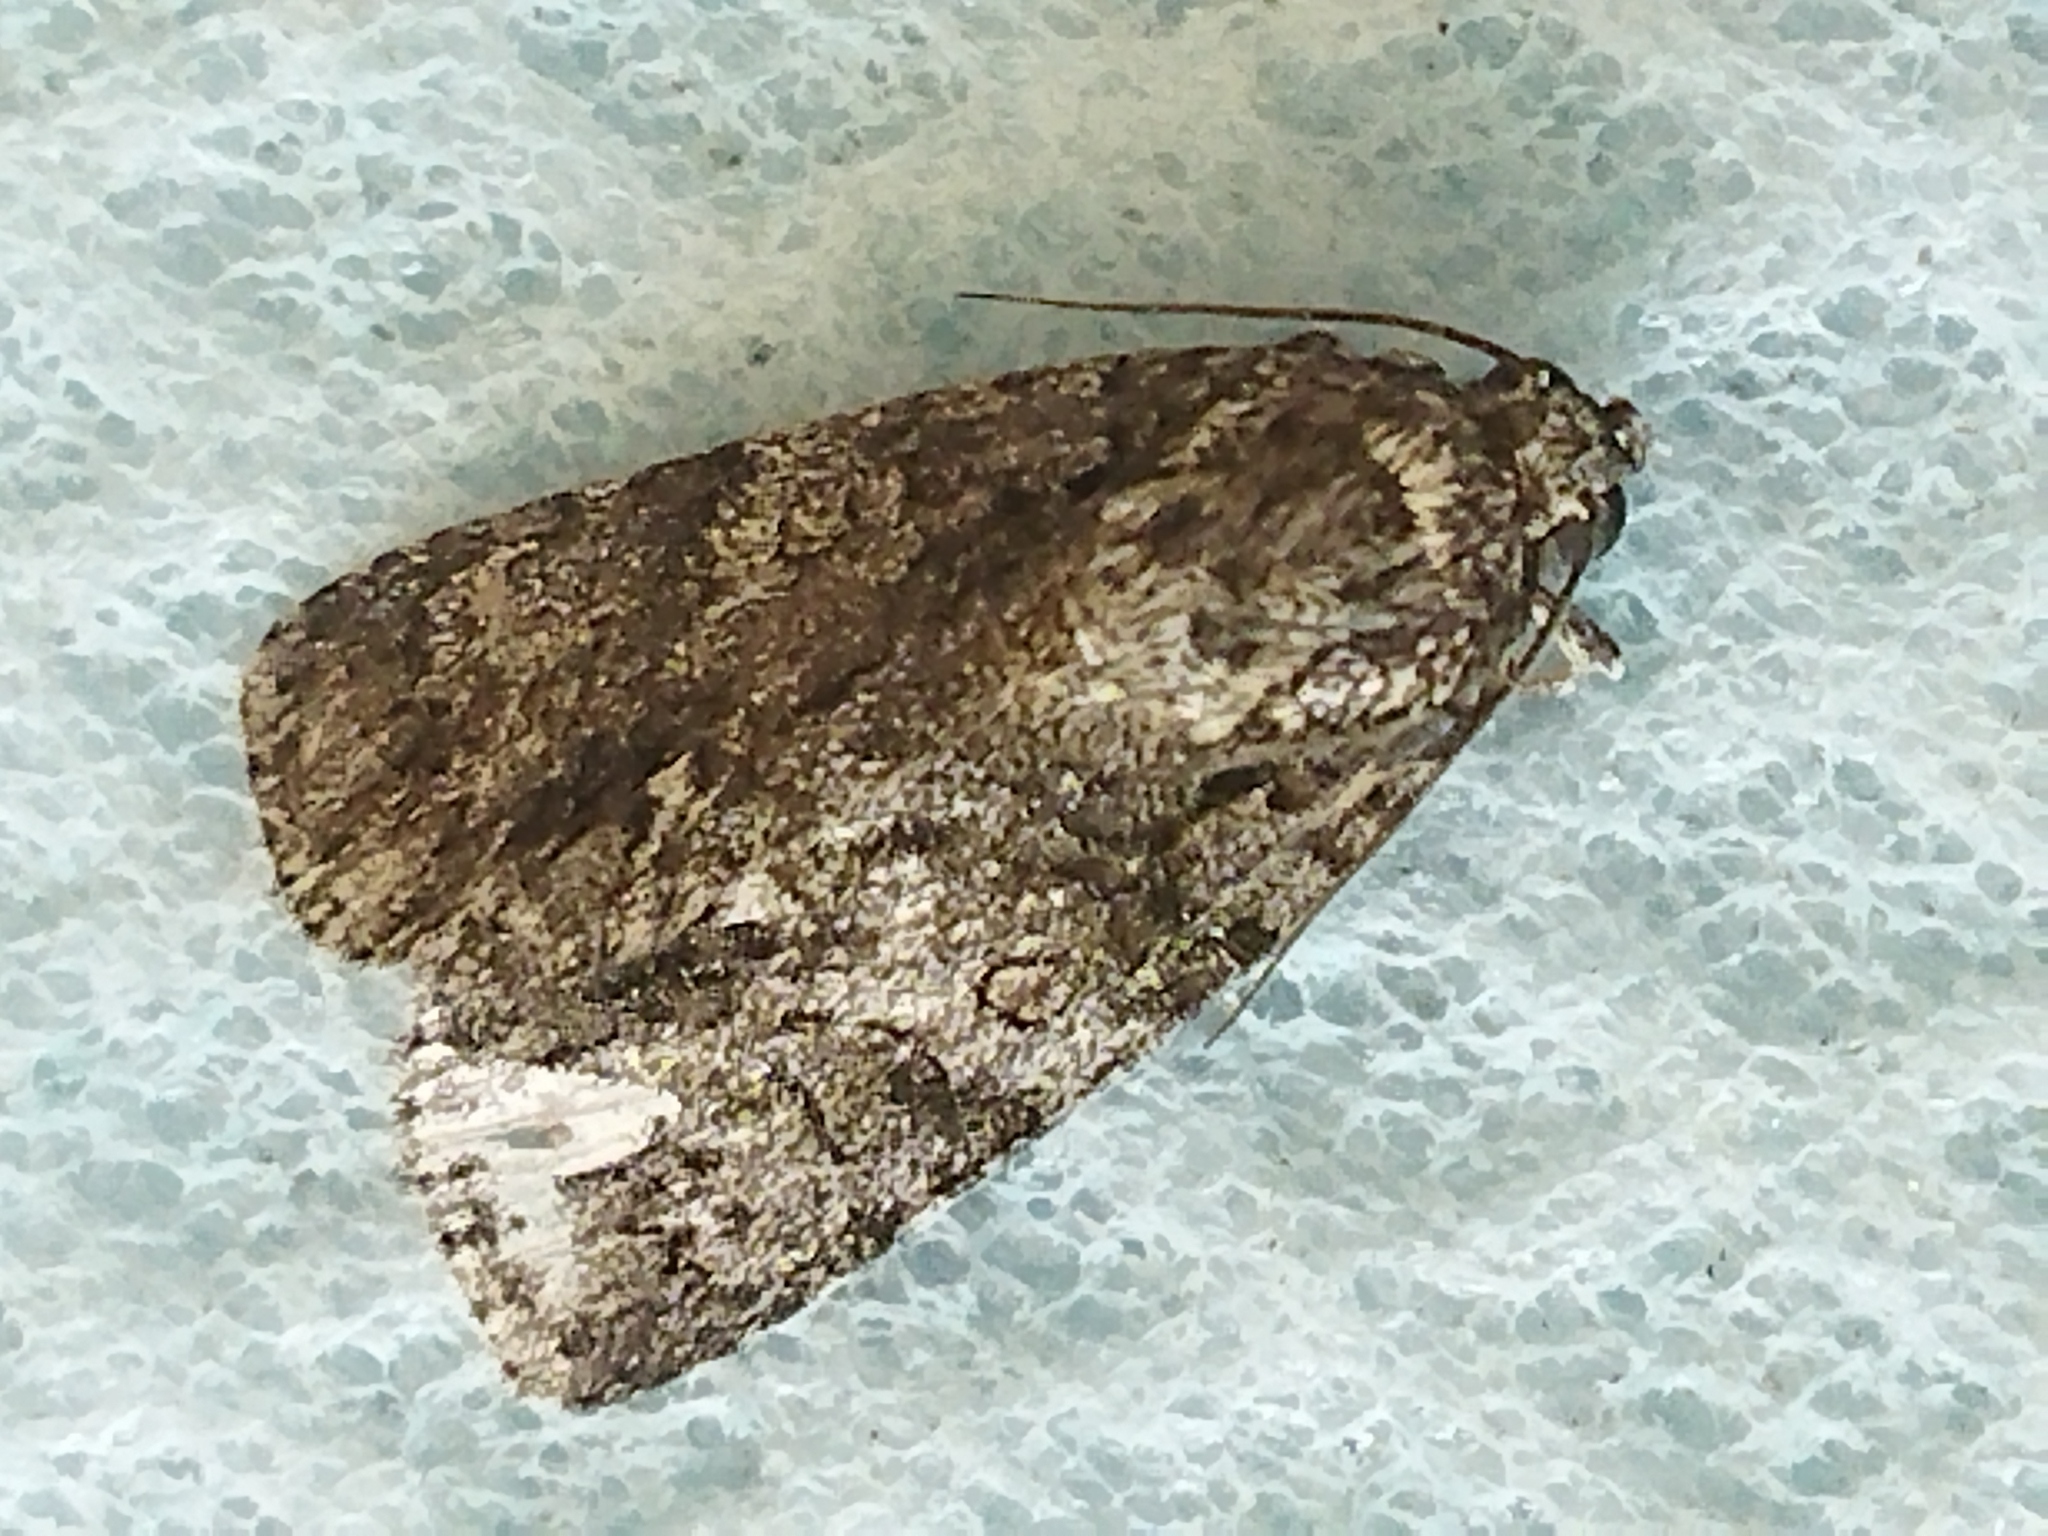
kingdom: Animalia
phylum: Arthropoda
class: Insecta
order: Lepidoptera
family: Noctuidae
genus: Acronicta
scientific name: Acronicta rumicis
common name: Knot grass
